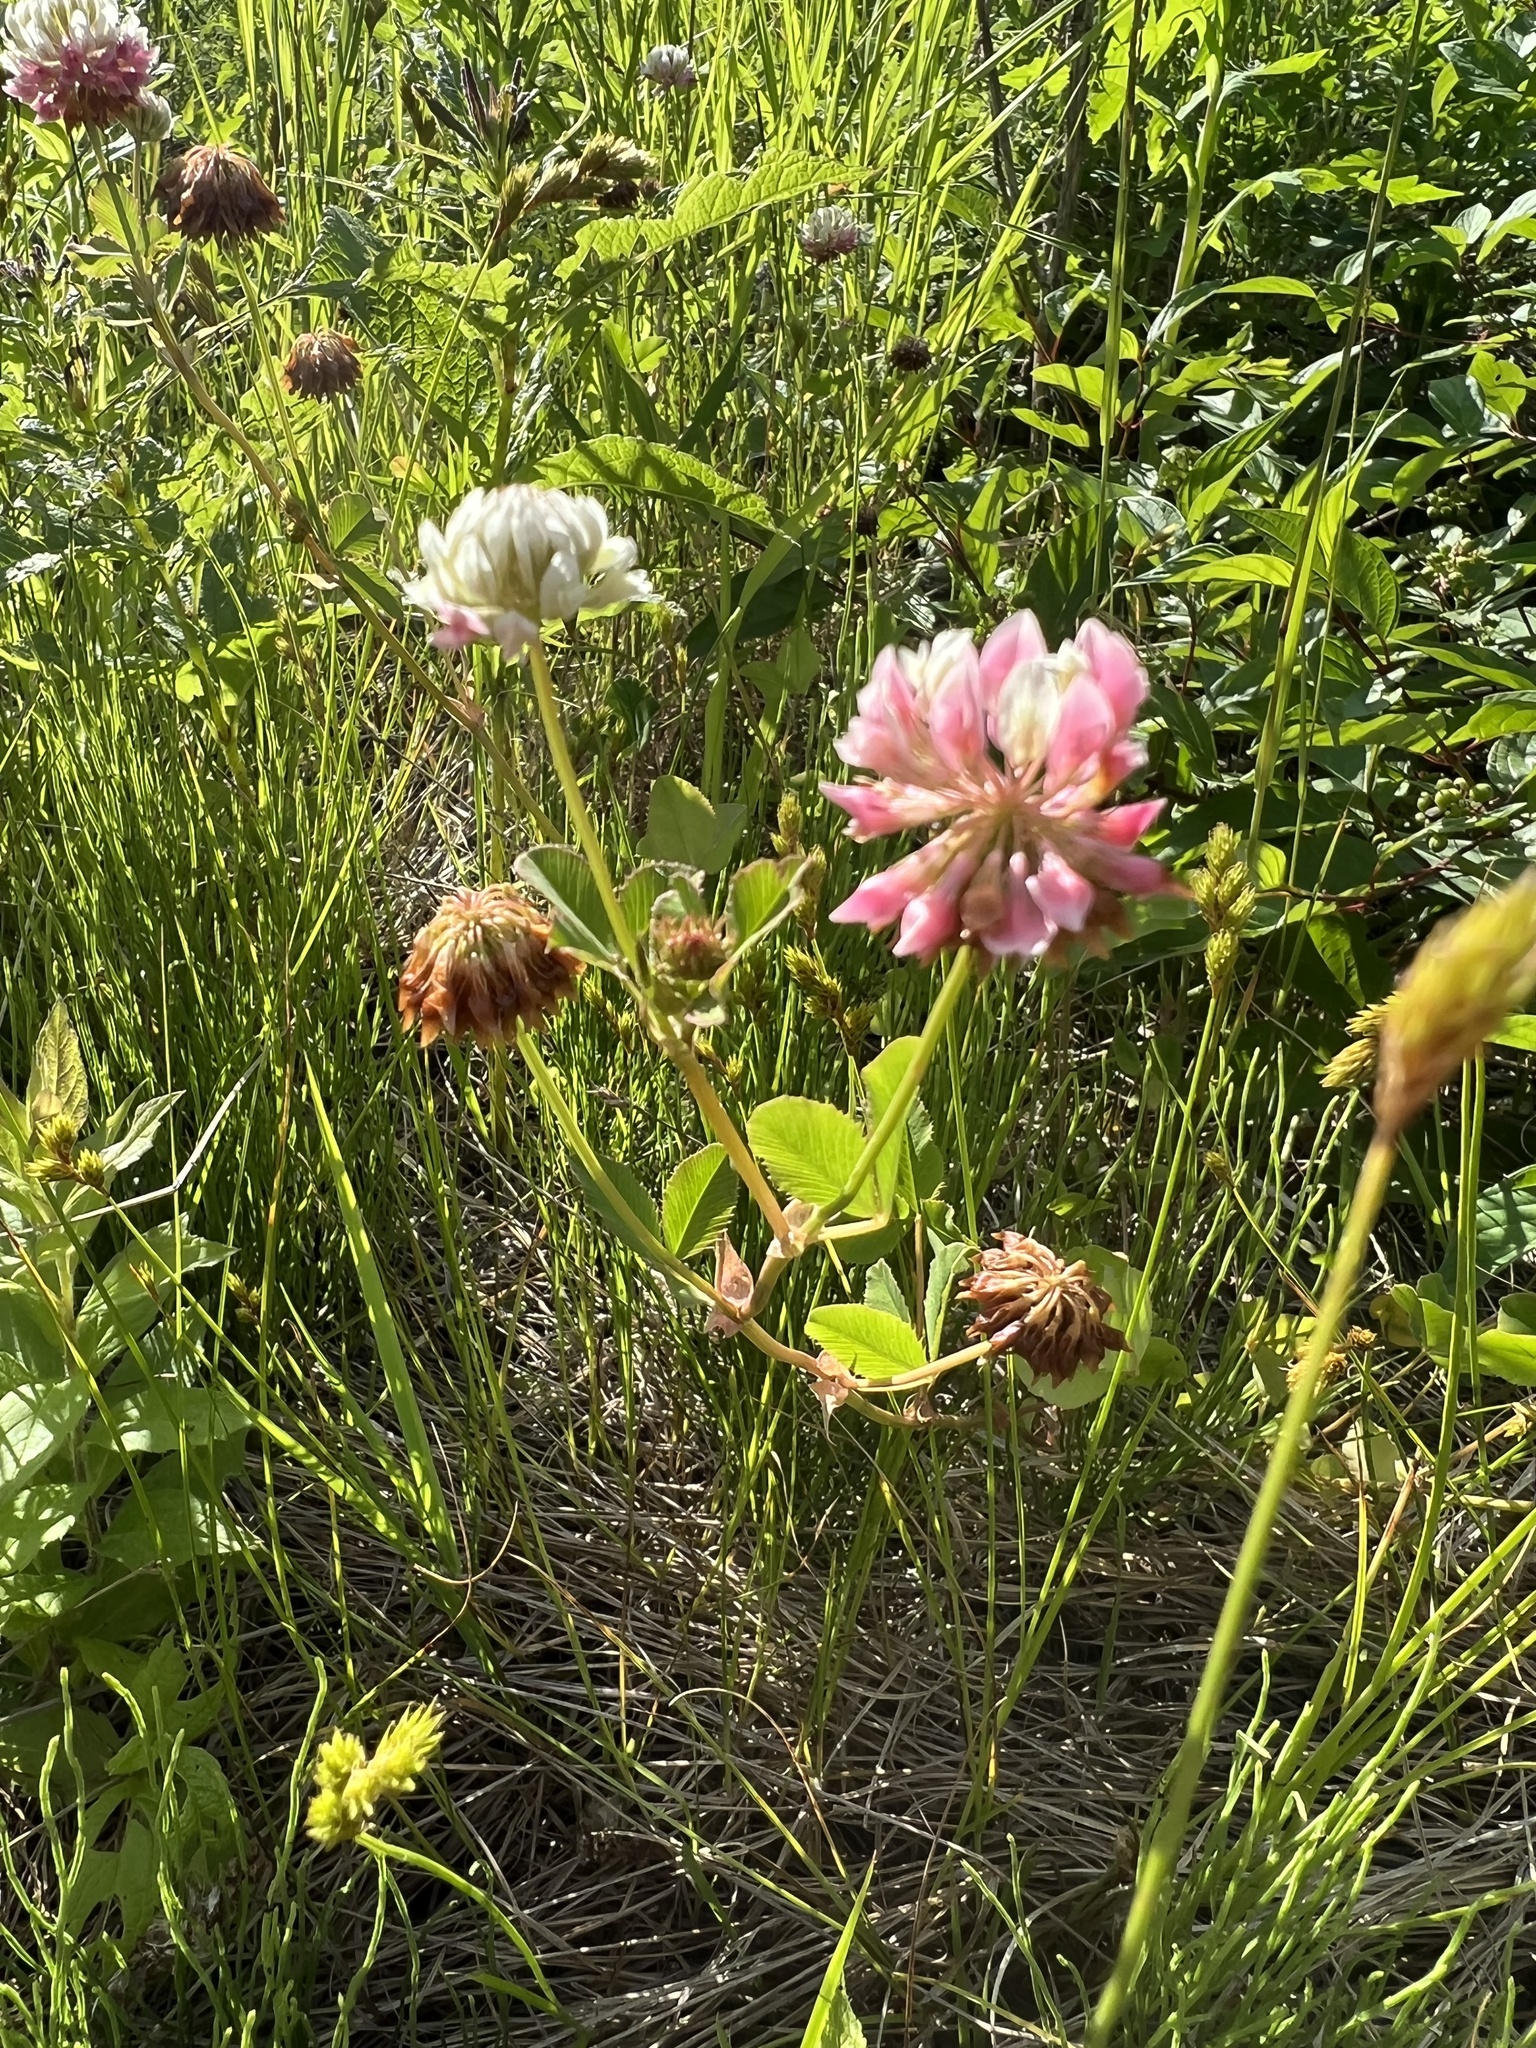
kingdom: Plantae
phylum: Tracheophyta
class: Magnoliopsida
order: Fabales
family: Fabaceae
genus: Trifolium
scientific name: Trifolium hybridum
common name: Alsike clover
